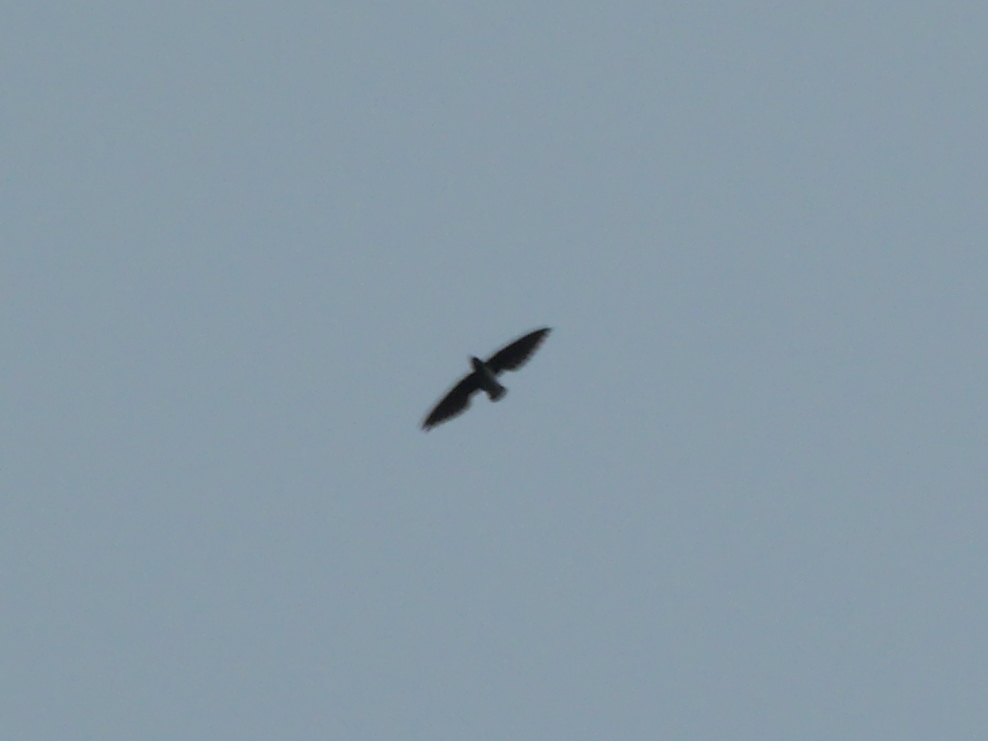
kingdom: Animalia
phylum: Chordata
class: Aves
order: Apodiformes
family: Apodidae
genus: Neafrapus
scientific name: Neafrapus cassini
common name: Cassin's spinetail
